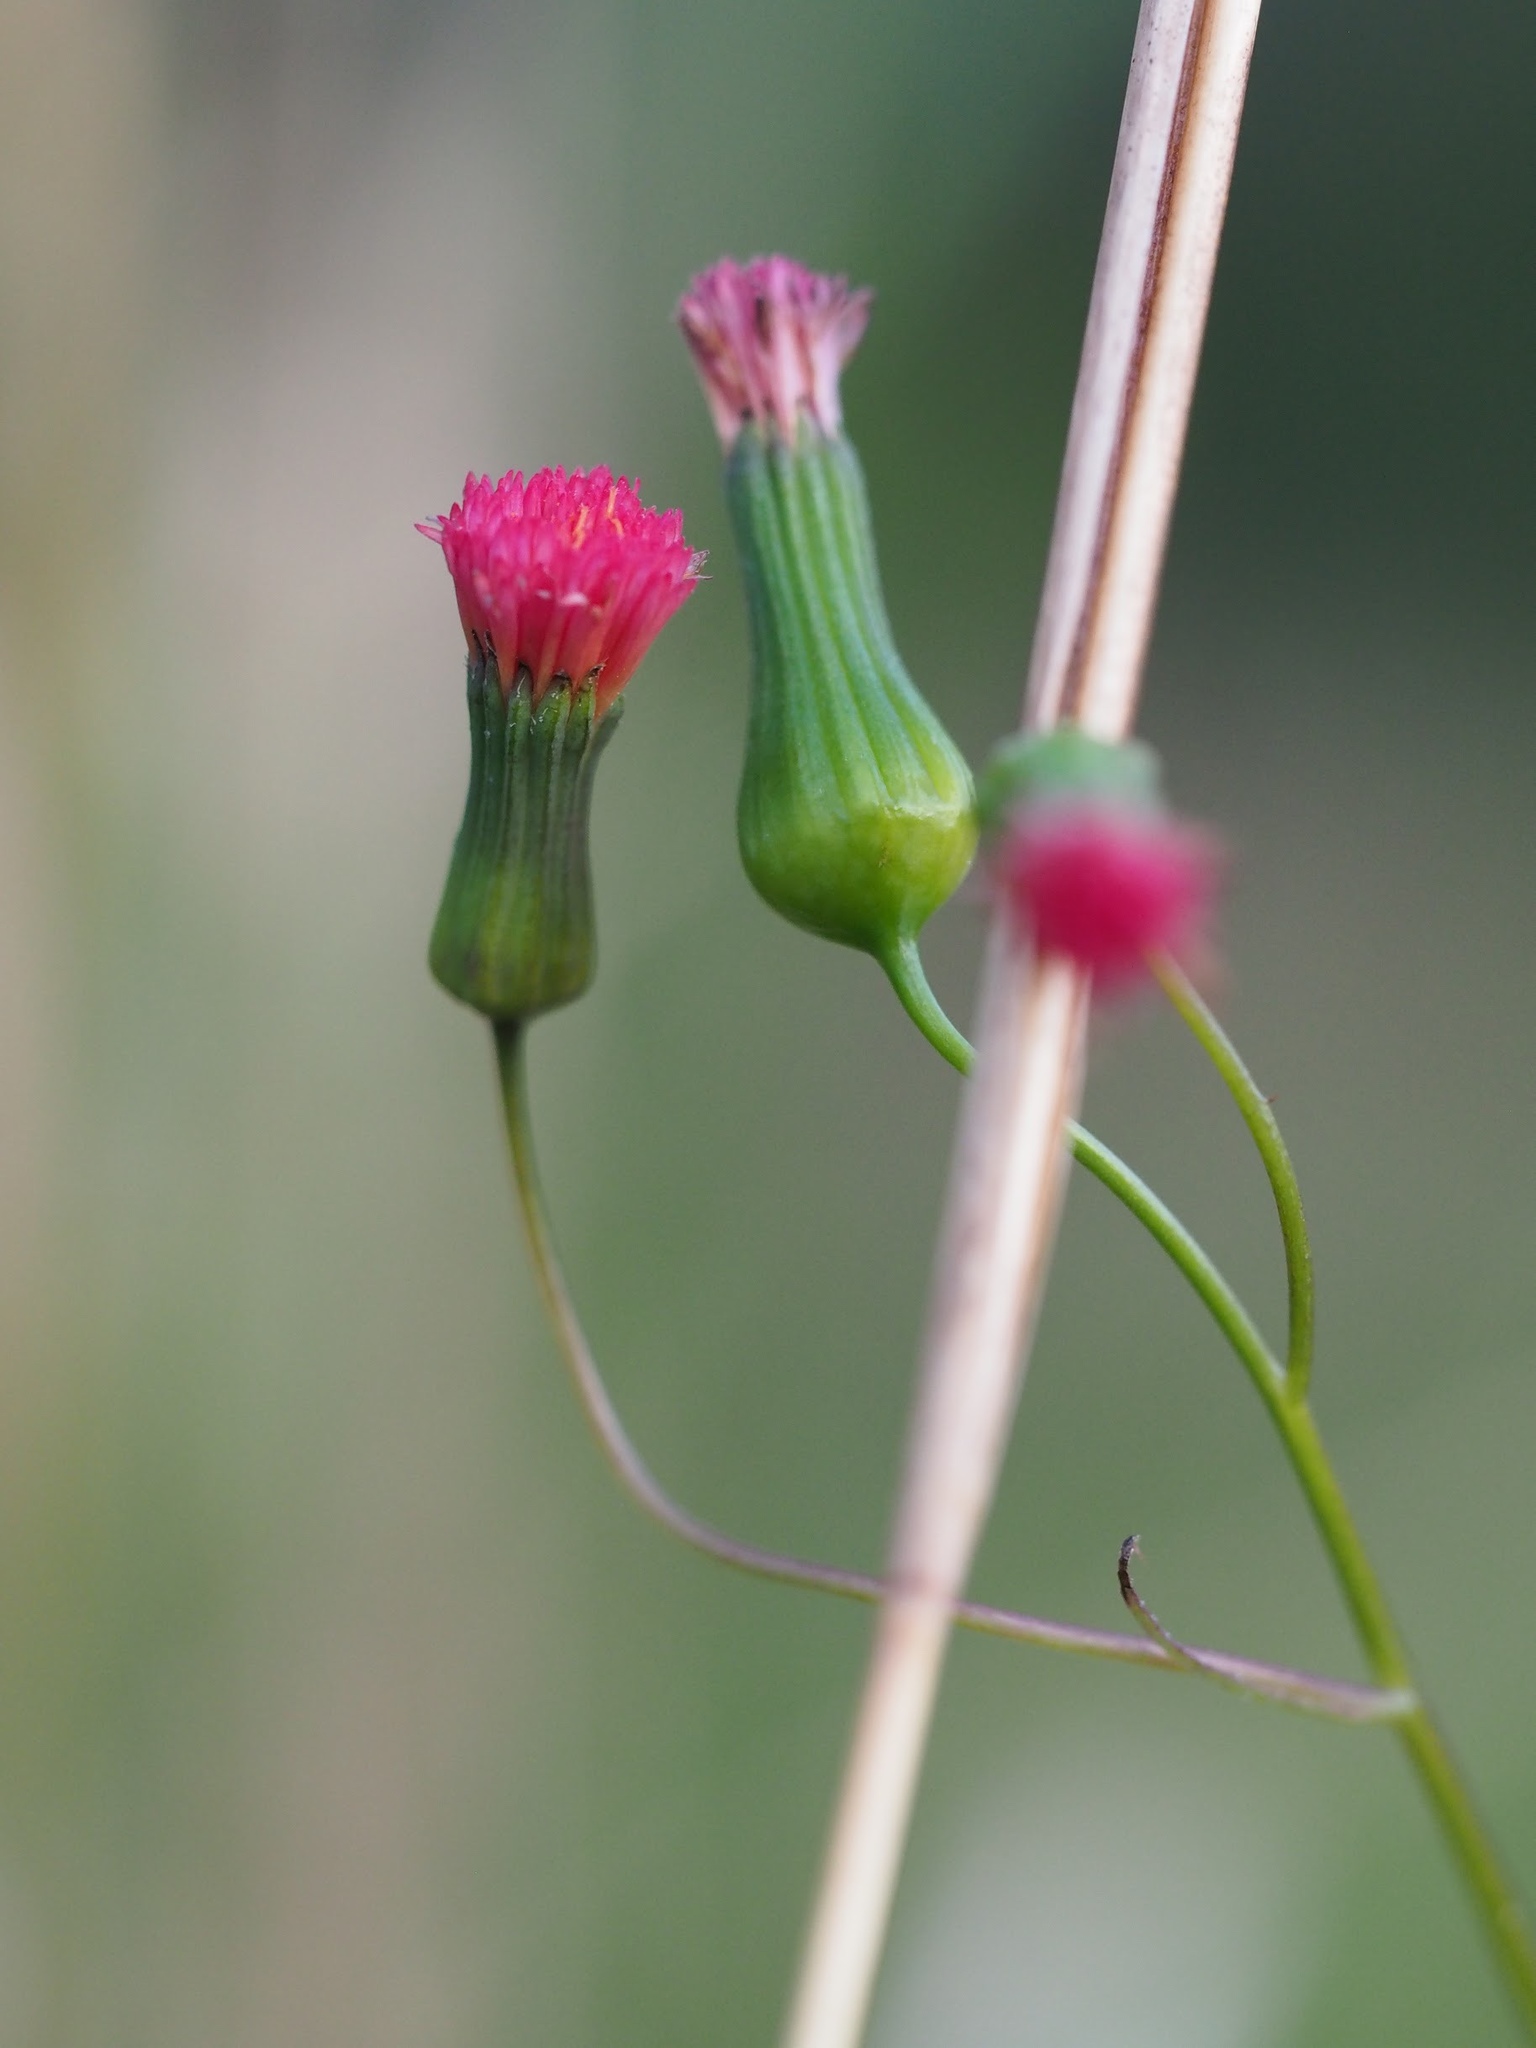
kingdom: Plantae
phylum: Tracheophyta
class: Magnoliopsida
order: Asterales
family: Asteraceae
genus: Emilia
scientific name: Emilia fosbergii
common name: Florida tasselflower
